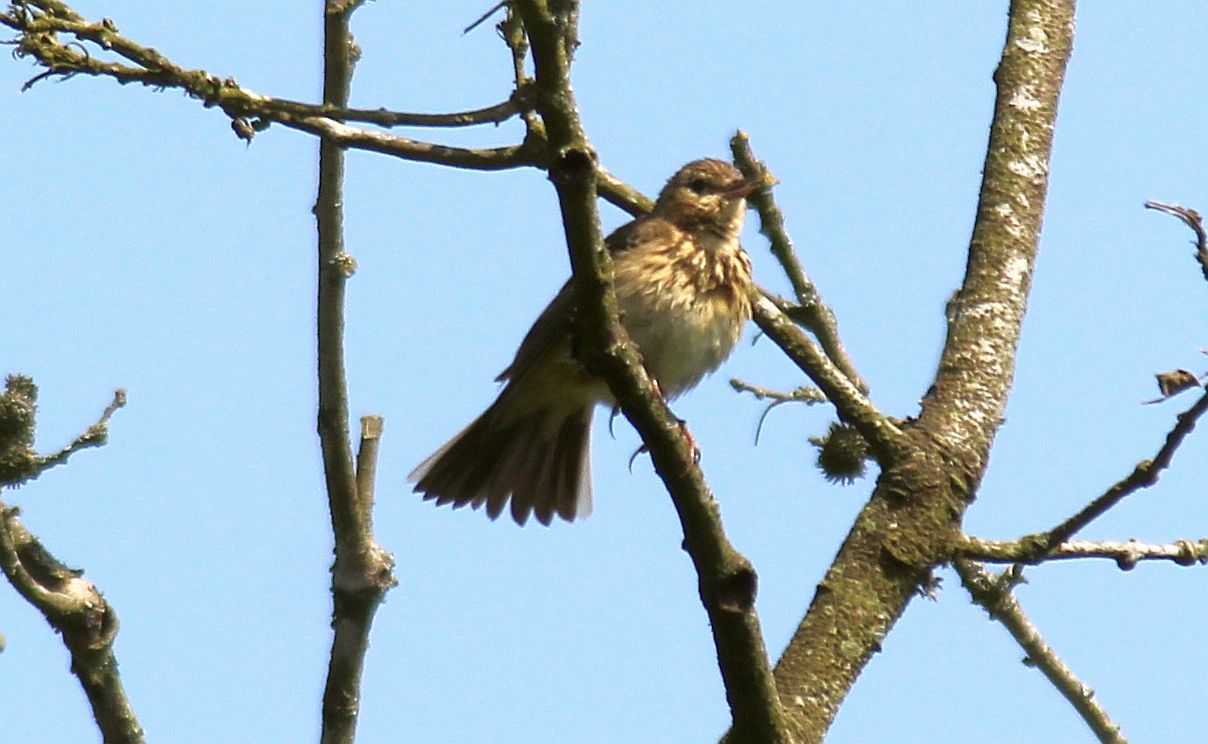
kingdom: Animalia
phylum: Chordata
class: Aves
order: Passeriformes
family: Motacillidae
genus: Anthus
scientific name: Anthus trivialis
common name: Tree pipit
